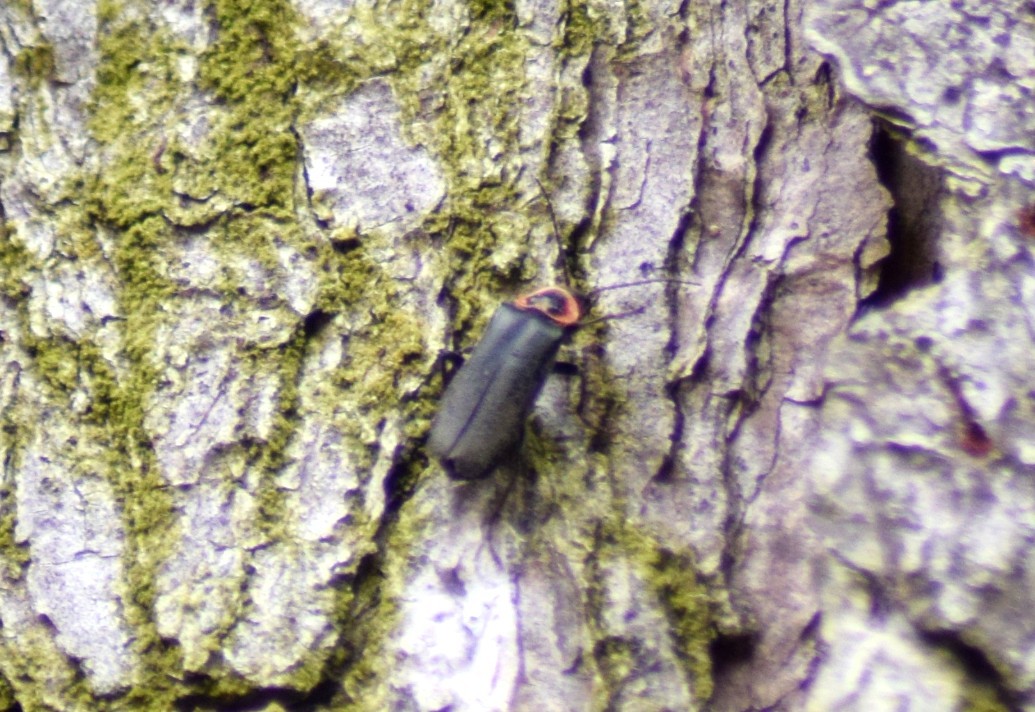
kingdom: Animalia
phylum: Arthropoda
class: Insecta
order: Coleoptera
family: Cantharidae
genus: Atalantycha
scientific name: Atalantycha neglecta
